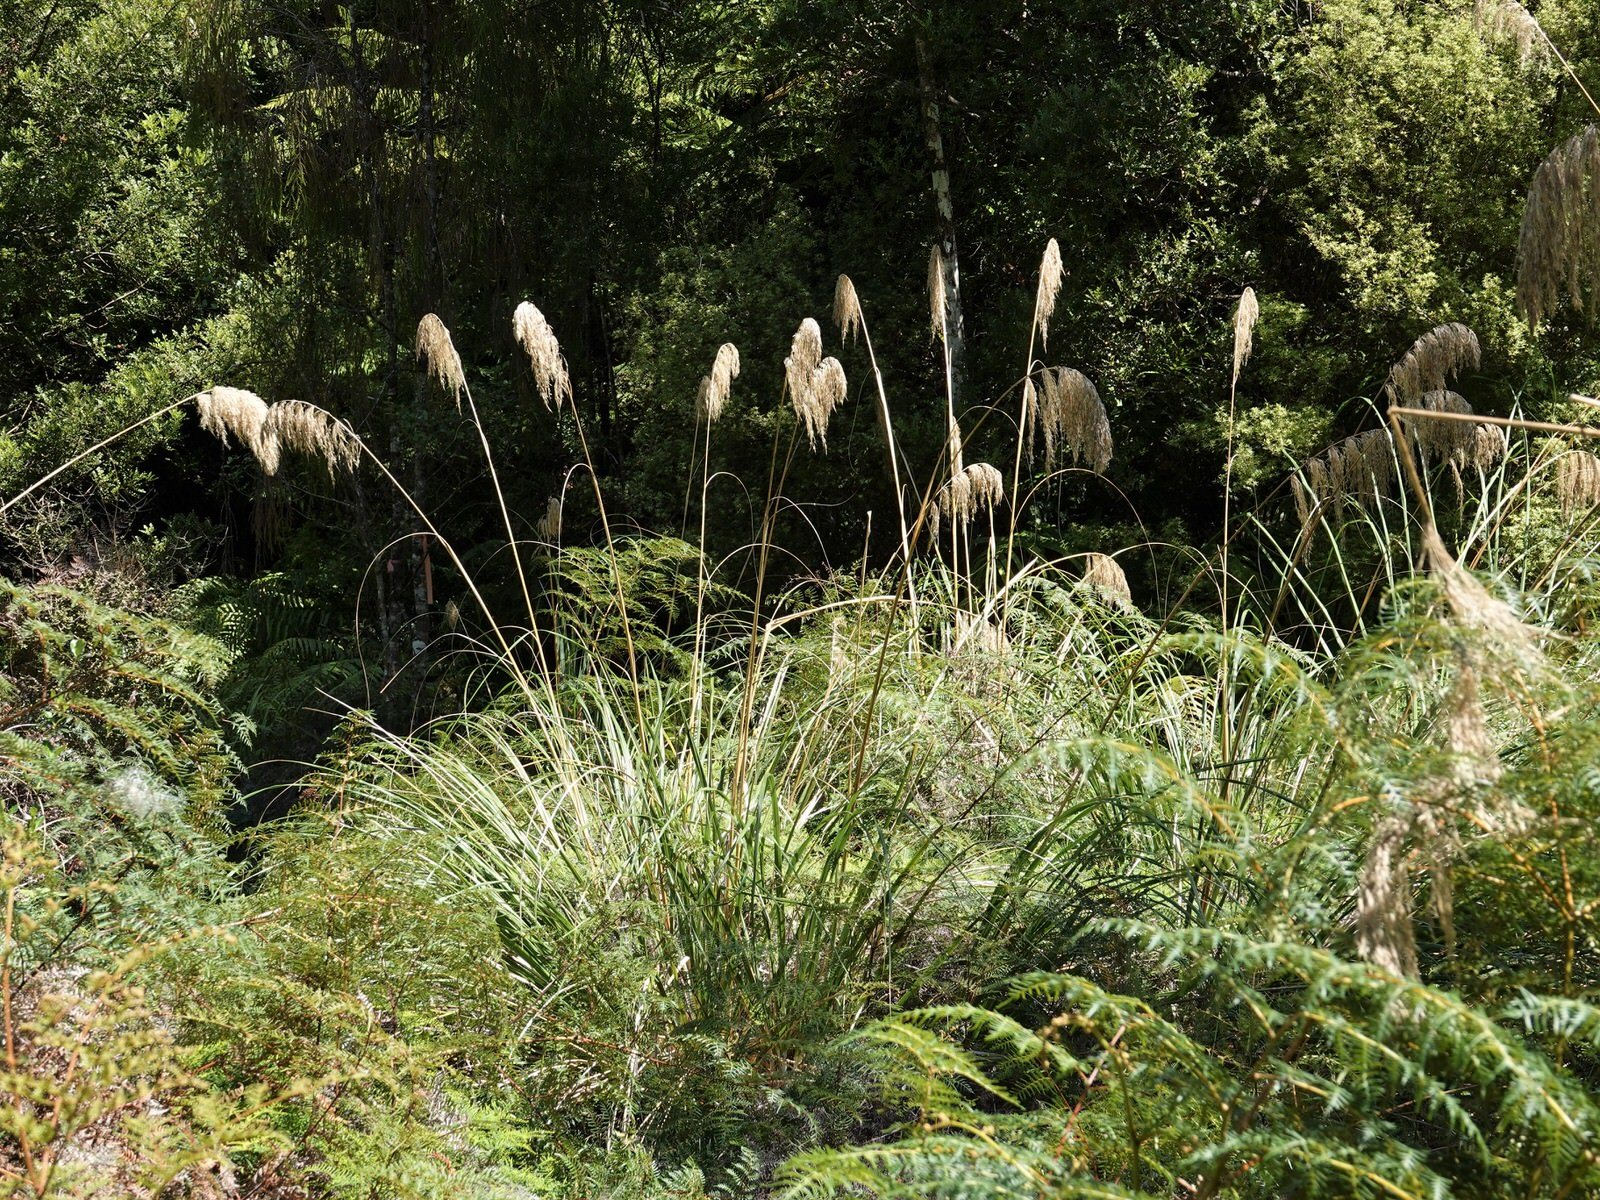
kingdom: Plantae
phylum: Tracheophyta
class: Liliopsida
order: Poales
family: Poaceae
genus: Austroderia
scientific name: Austroderia fulvida
